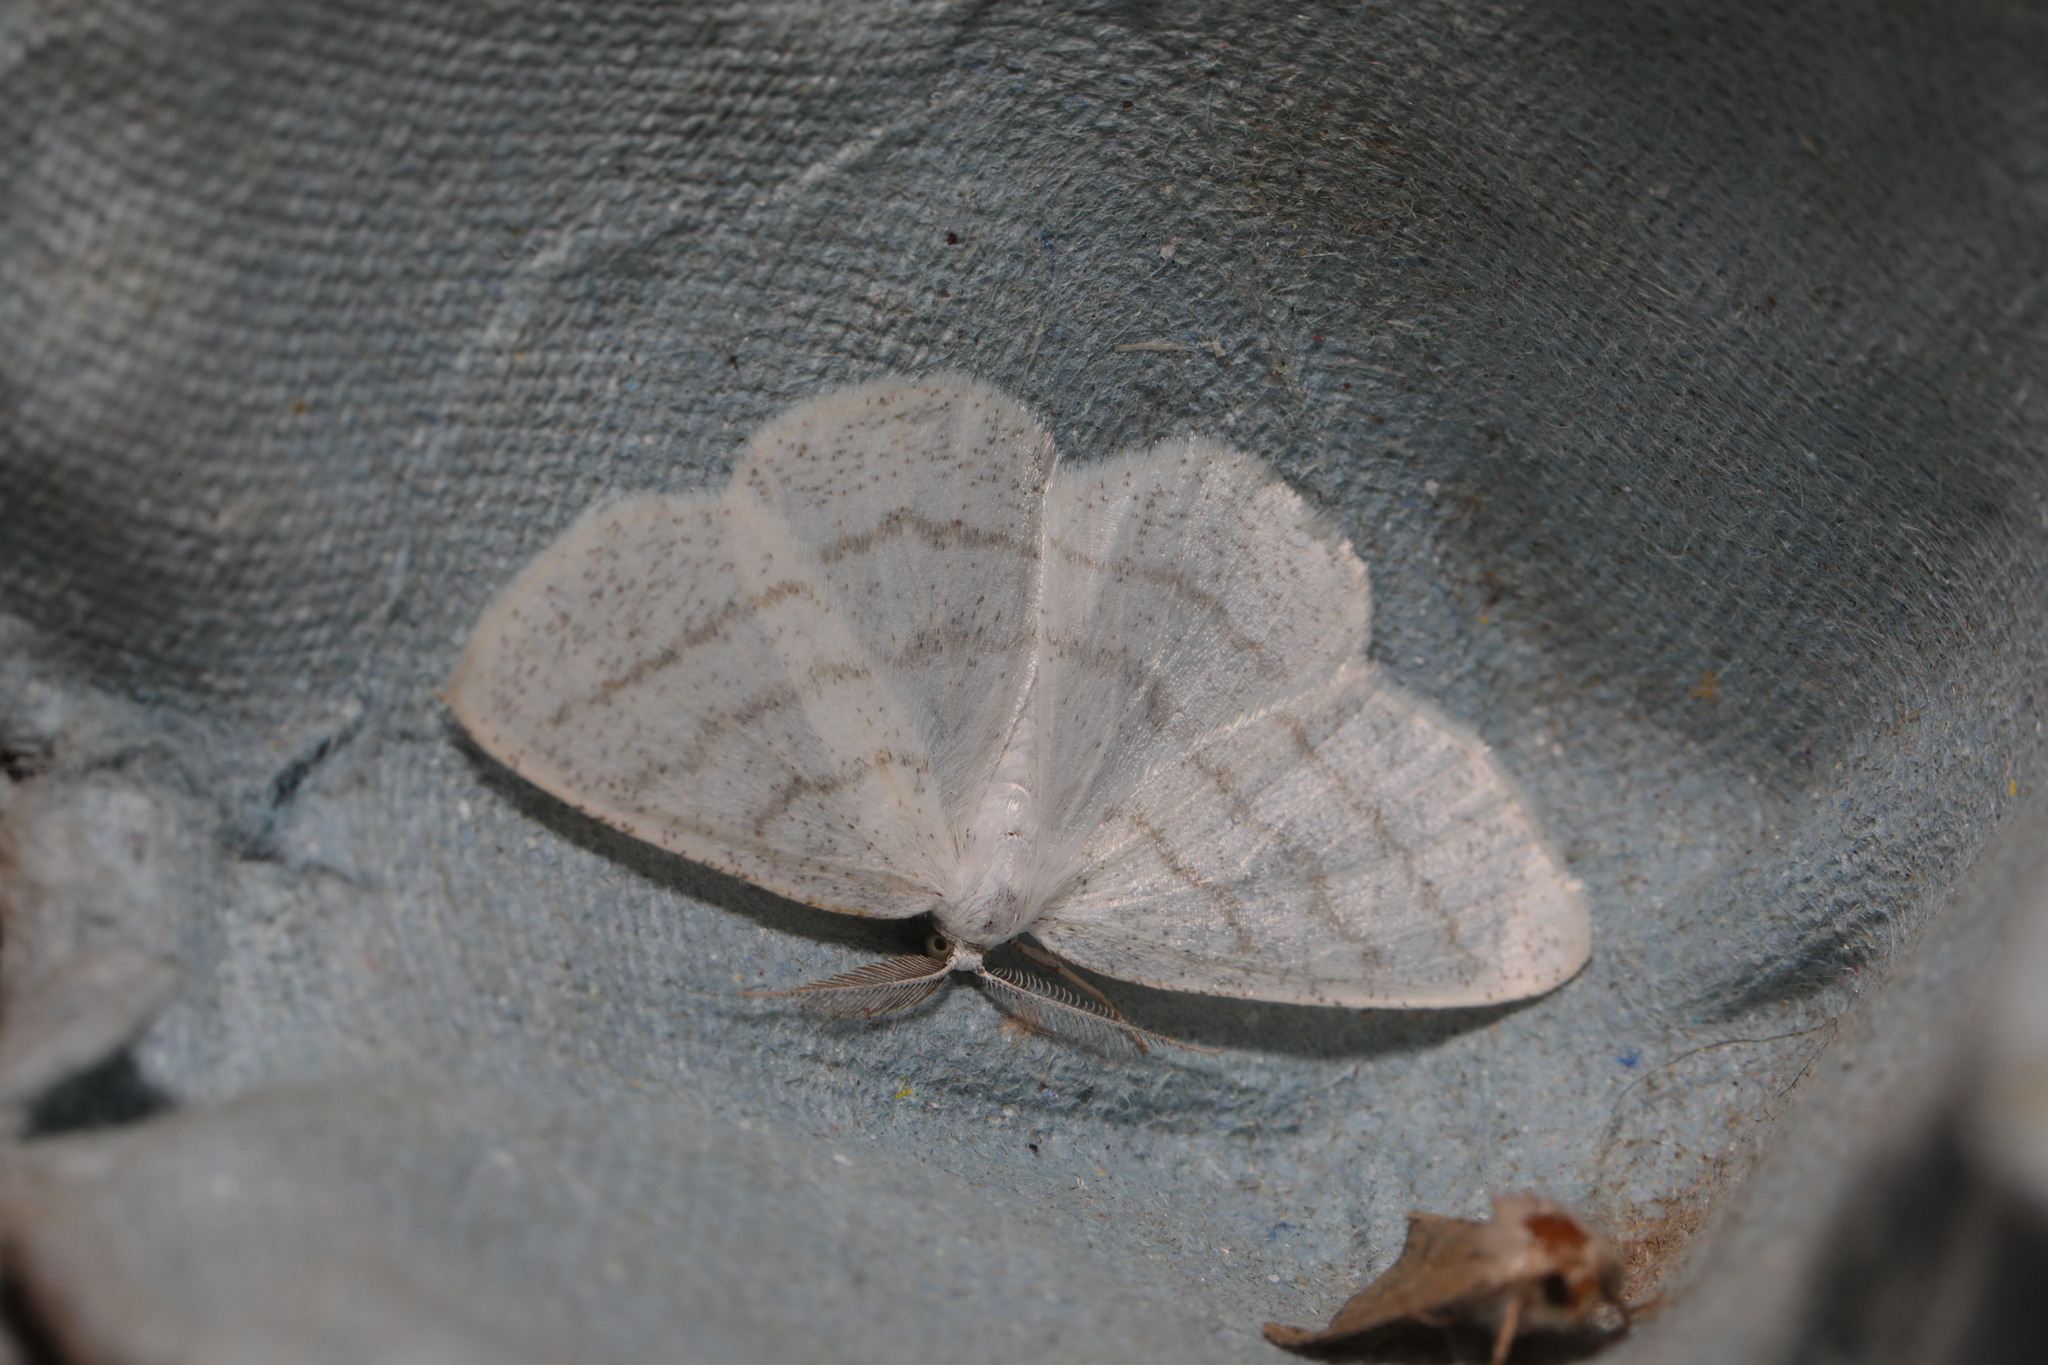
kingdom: Animalia
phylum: Arthropoda
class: Insecta
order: Lepidoptera
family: Geometridae
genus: Cabera
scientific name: Cabera pusaria
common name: Common white wave
